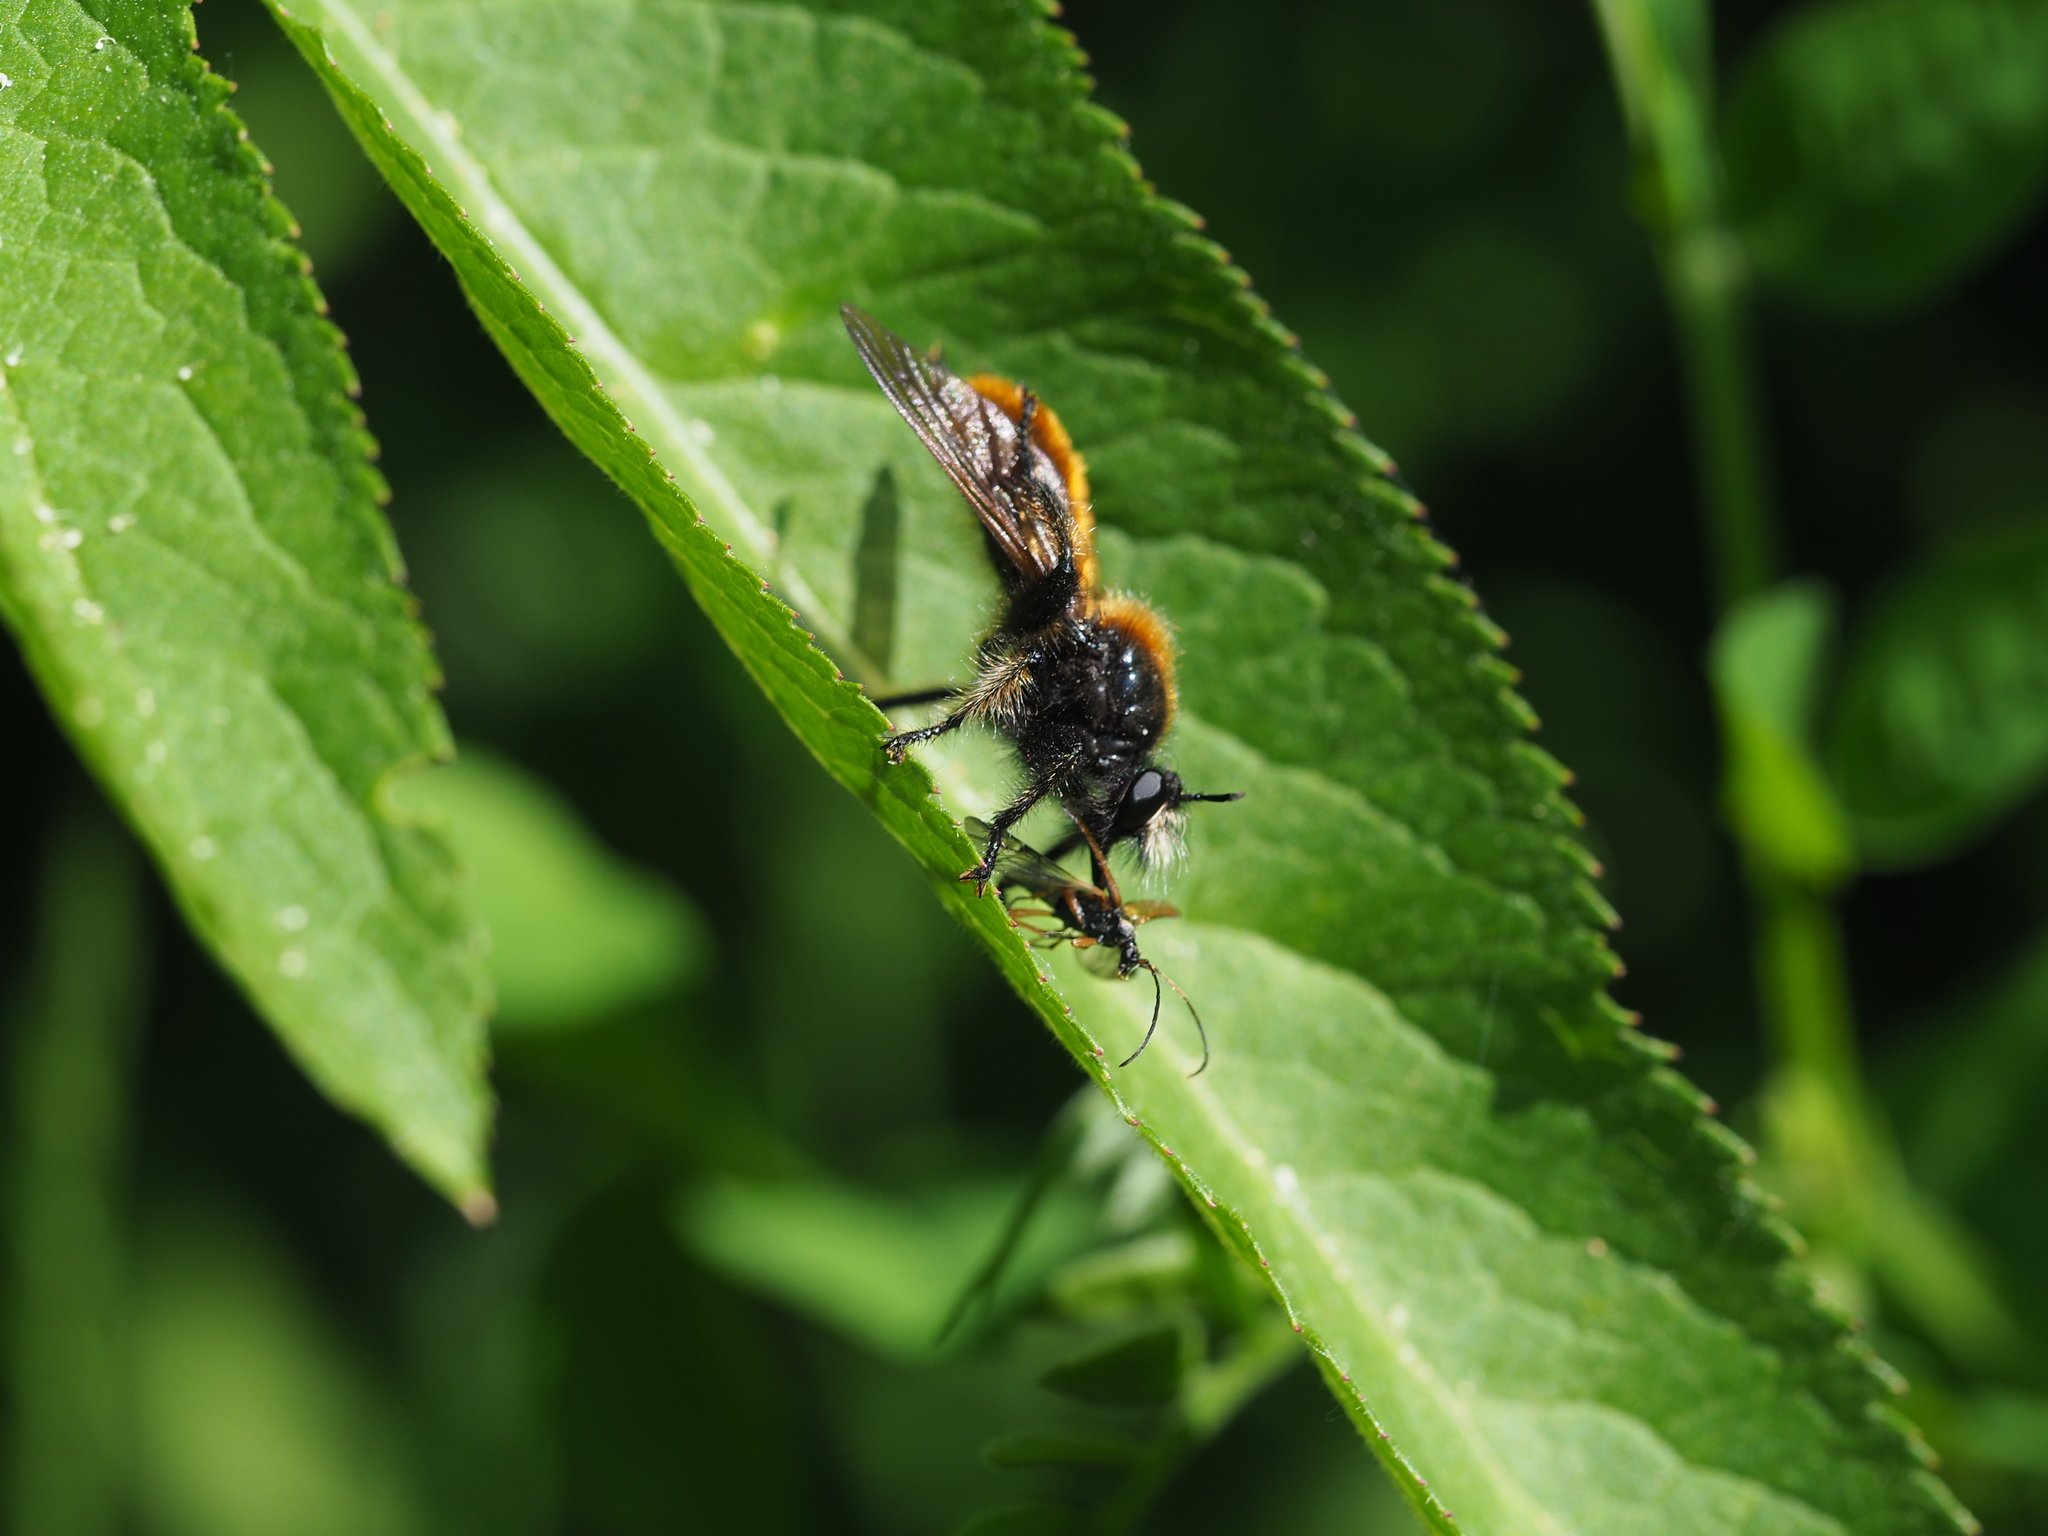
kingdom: Animalia
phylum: Arthropoda
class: Insecta
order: Diptera
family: Asilidae
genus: Laphria
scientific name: Laphria flava
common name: Bumblebee robberfly
